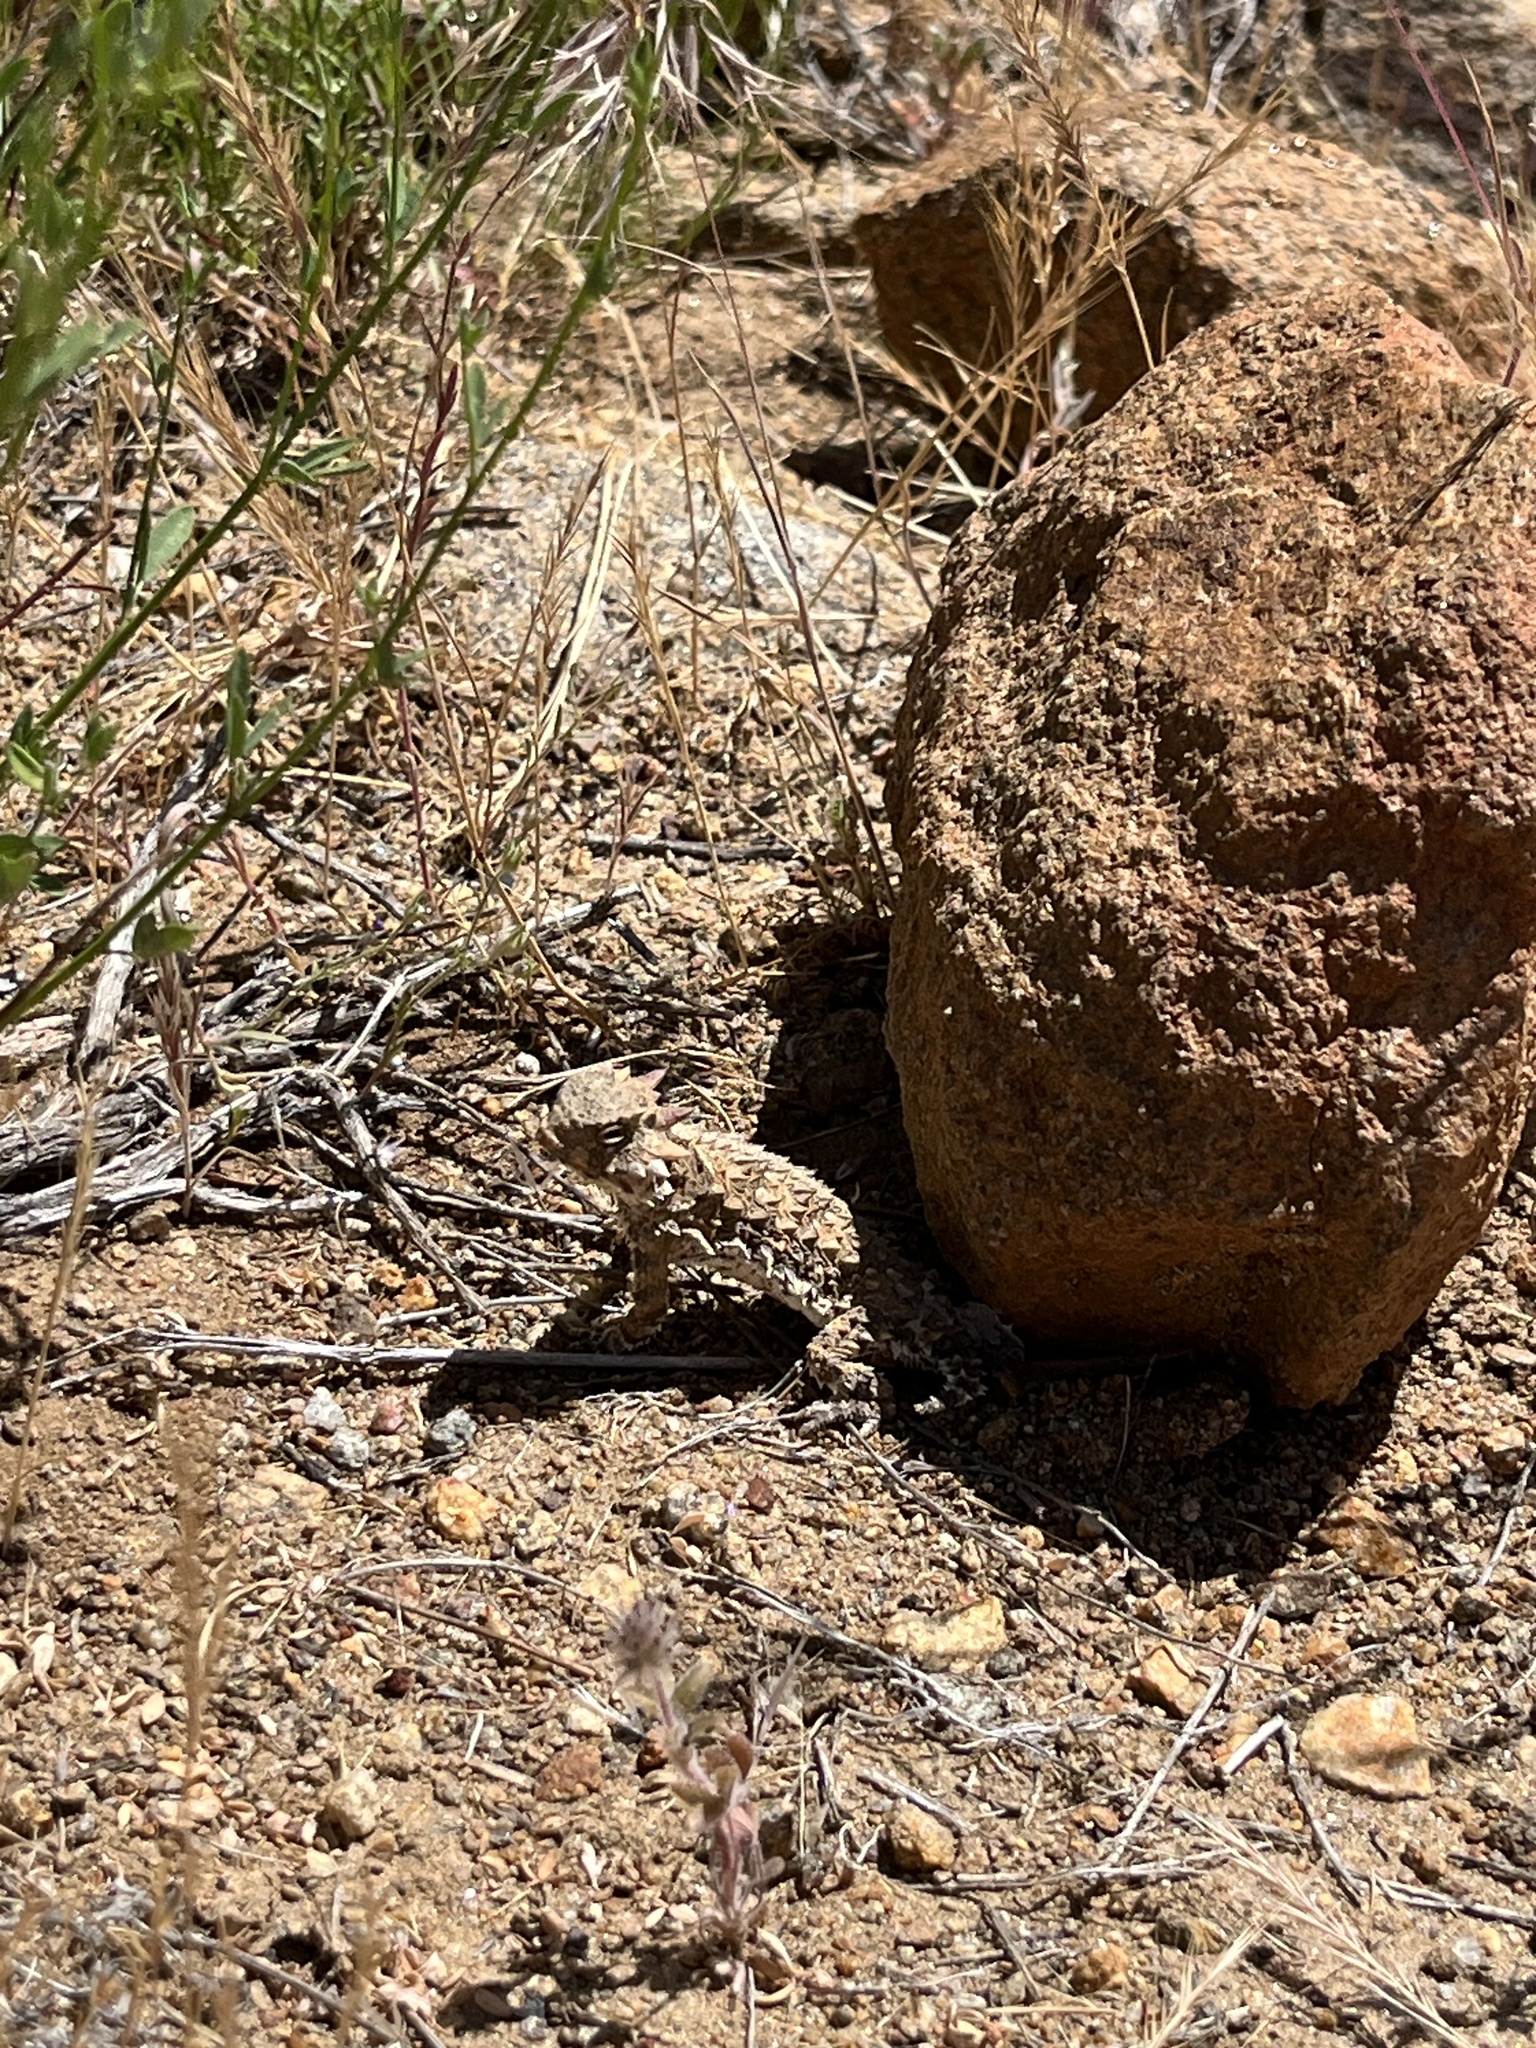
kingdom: Animalia
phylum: Chordata
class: Squamata
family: Phrynosomatidae
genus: Phrynosoma
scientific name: Phrynosoma blainvillii
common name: San diego horned lizard
